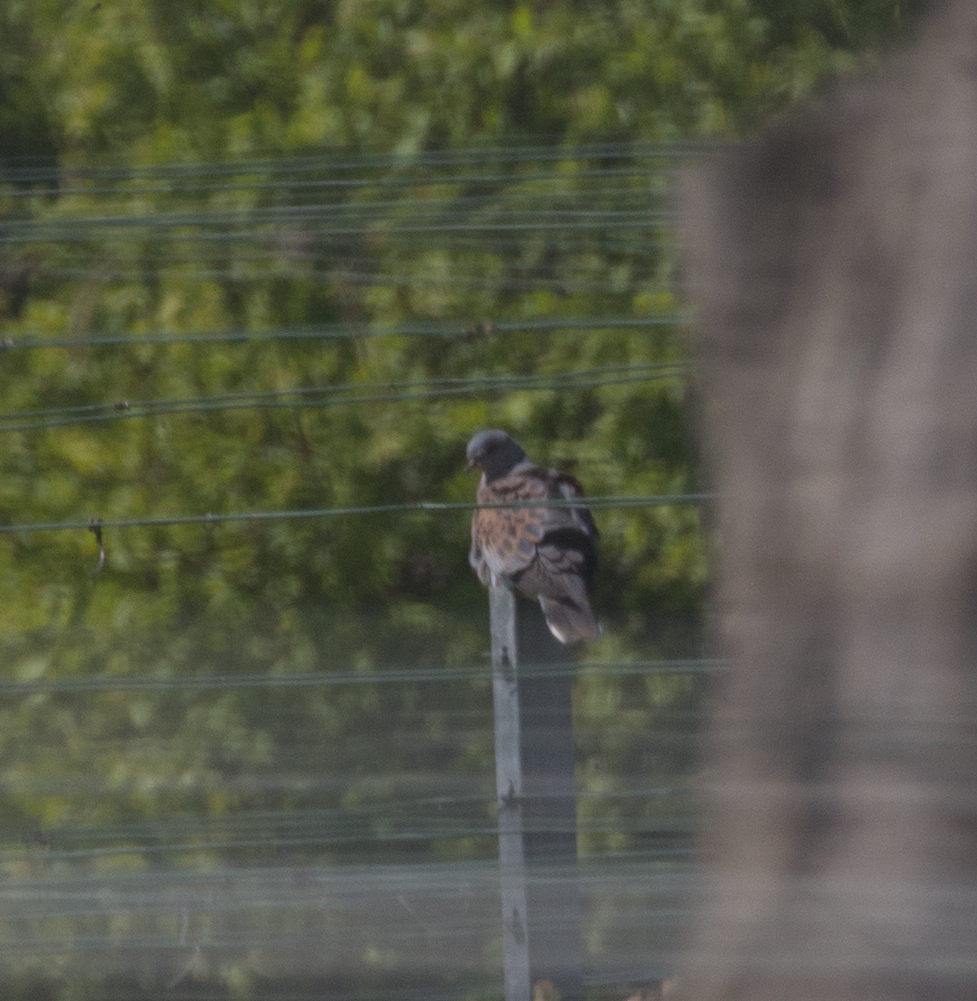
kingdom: Animalia
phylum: Chordata
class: Aves
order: Columbiformes
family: Columbidae
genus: Streptopelia
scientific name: Streptopelia turtur
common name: European turtle dove
